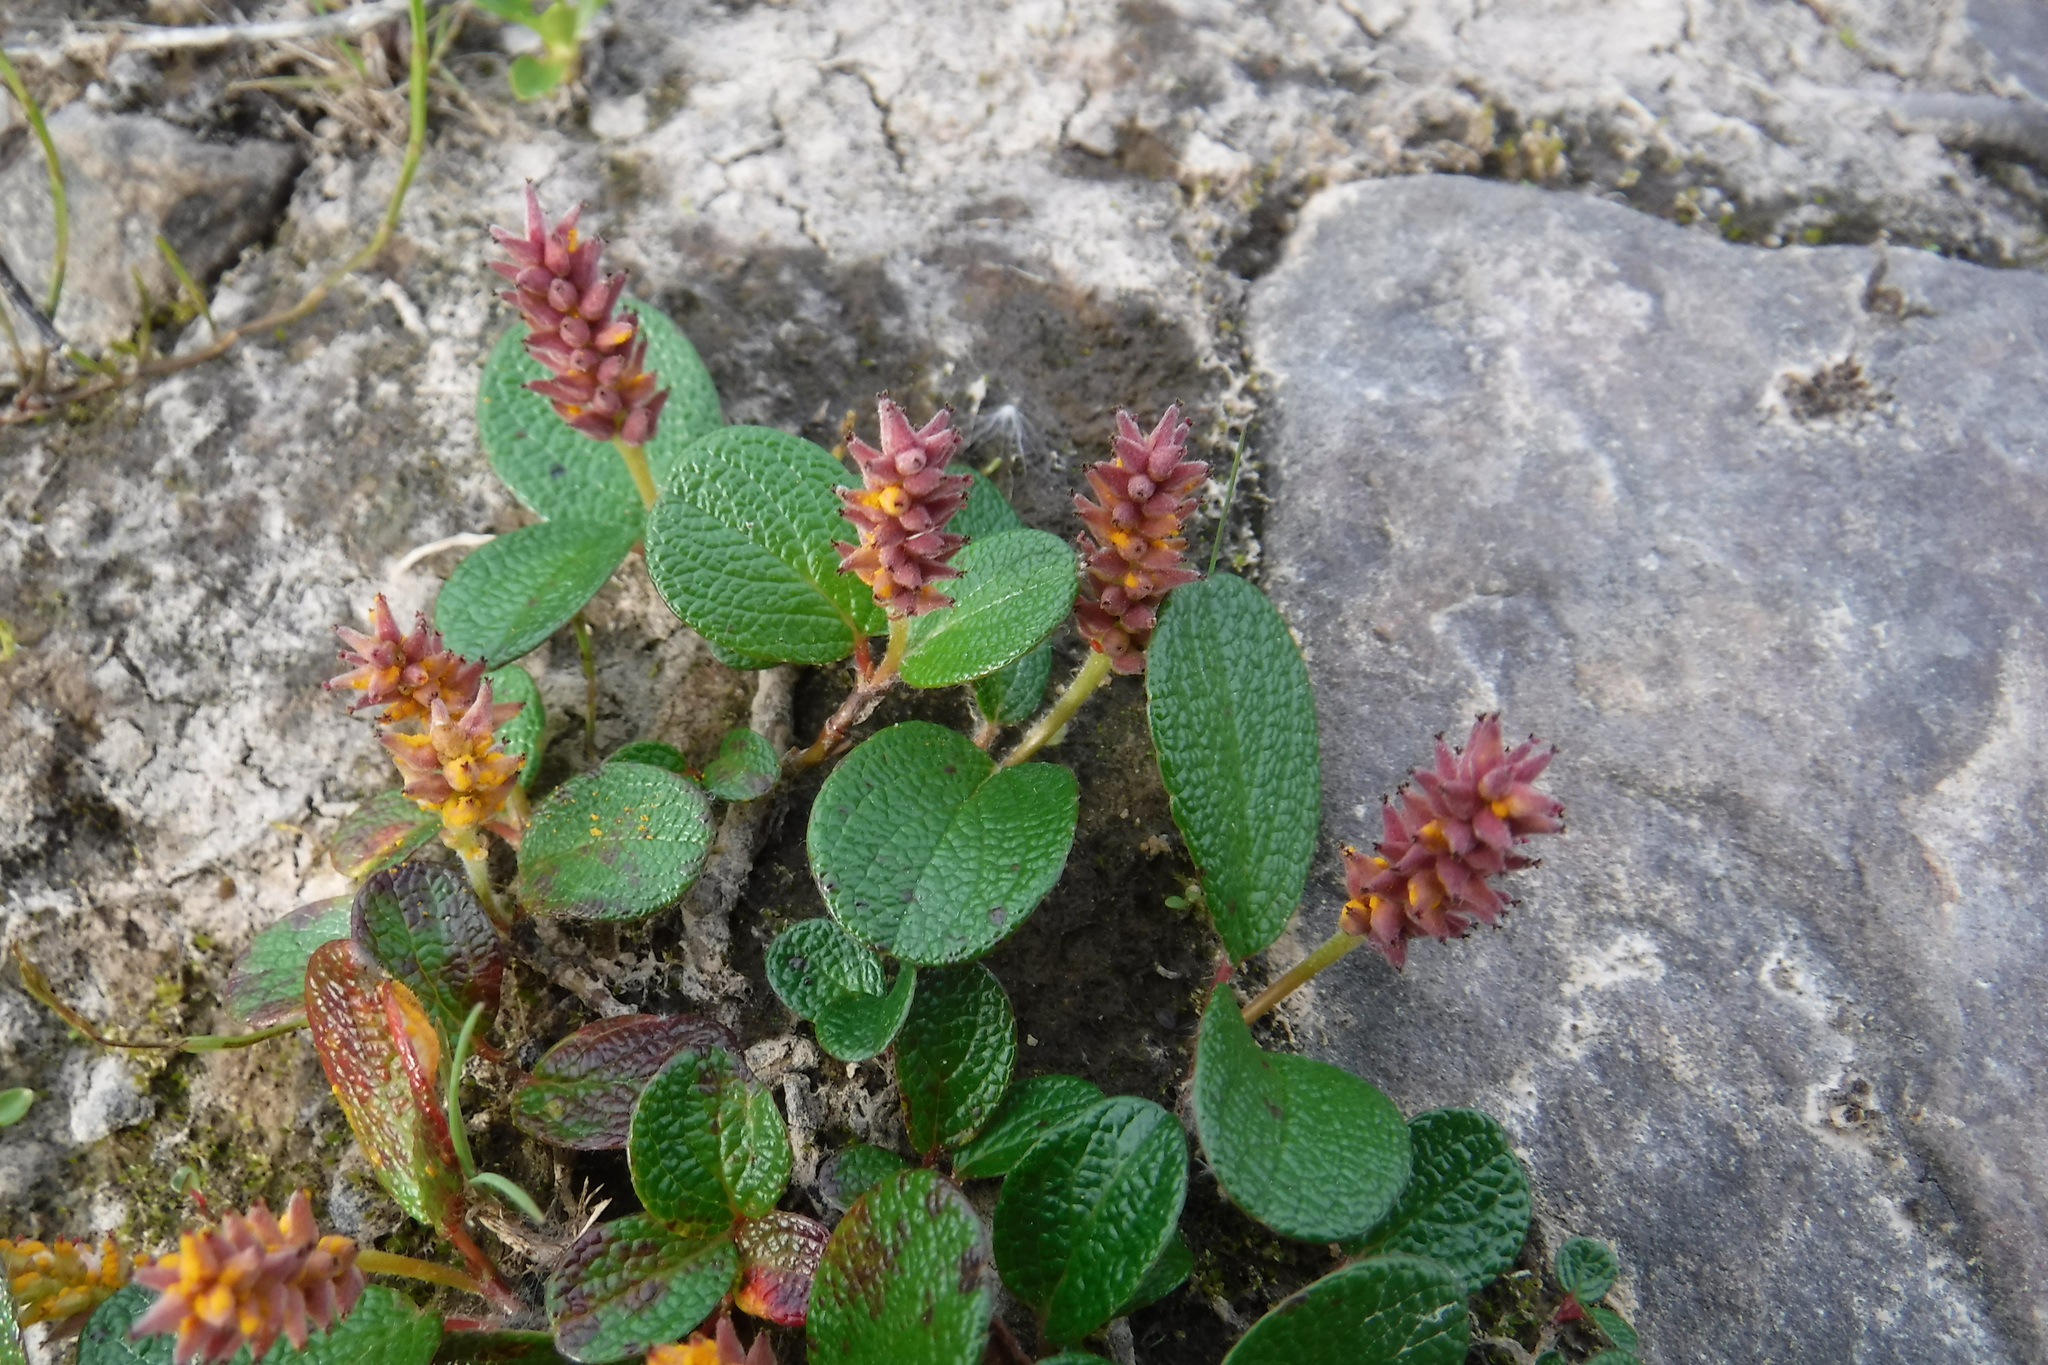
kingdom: Plantae
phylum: Tracheophyta
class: Magnoliopsida
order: Malpighiales
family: Salicaceae
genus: Salix
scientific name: Salix reticulata
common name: Net-leaved willow
